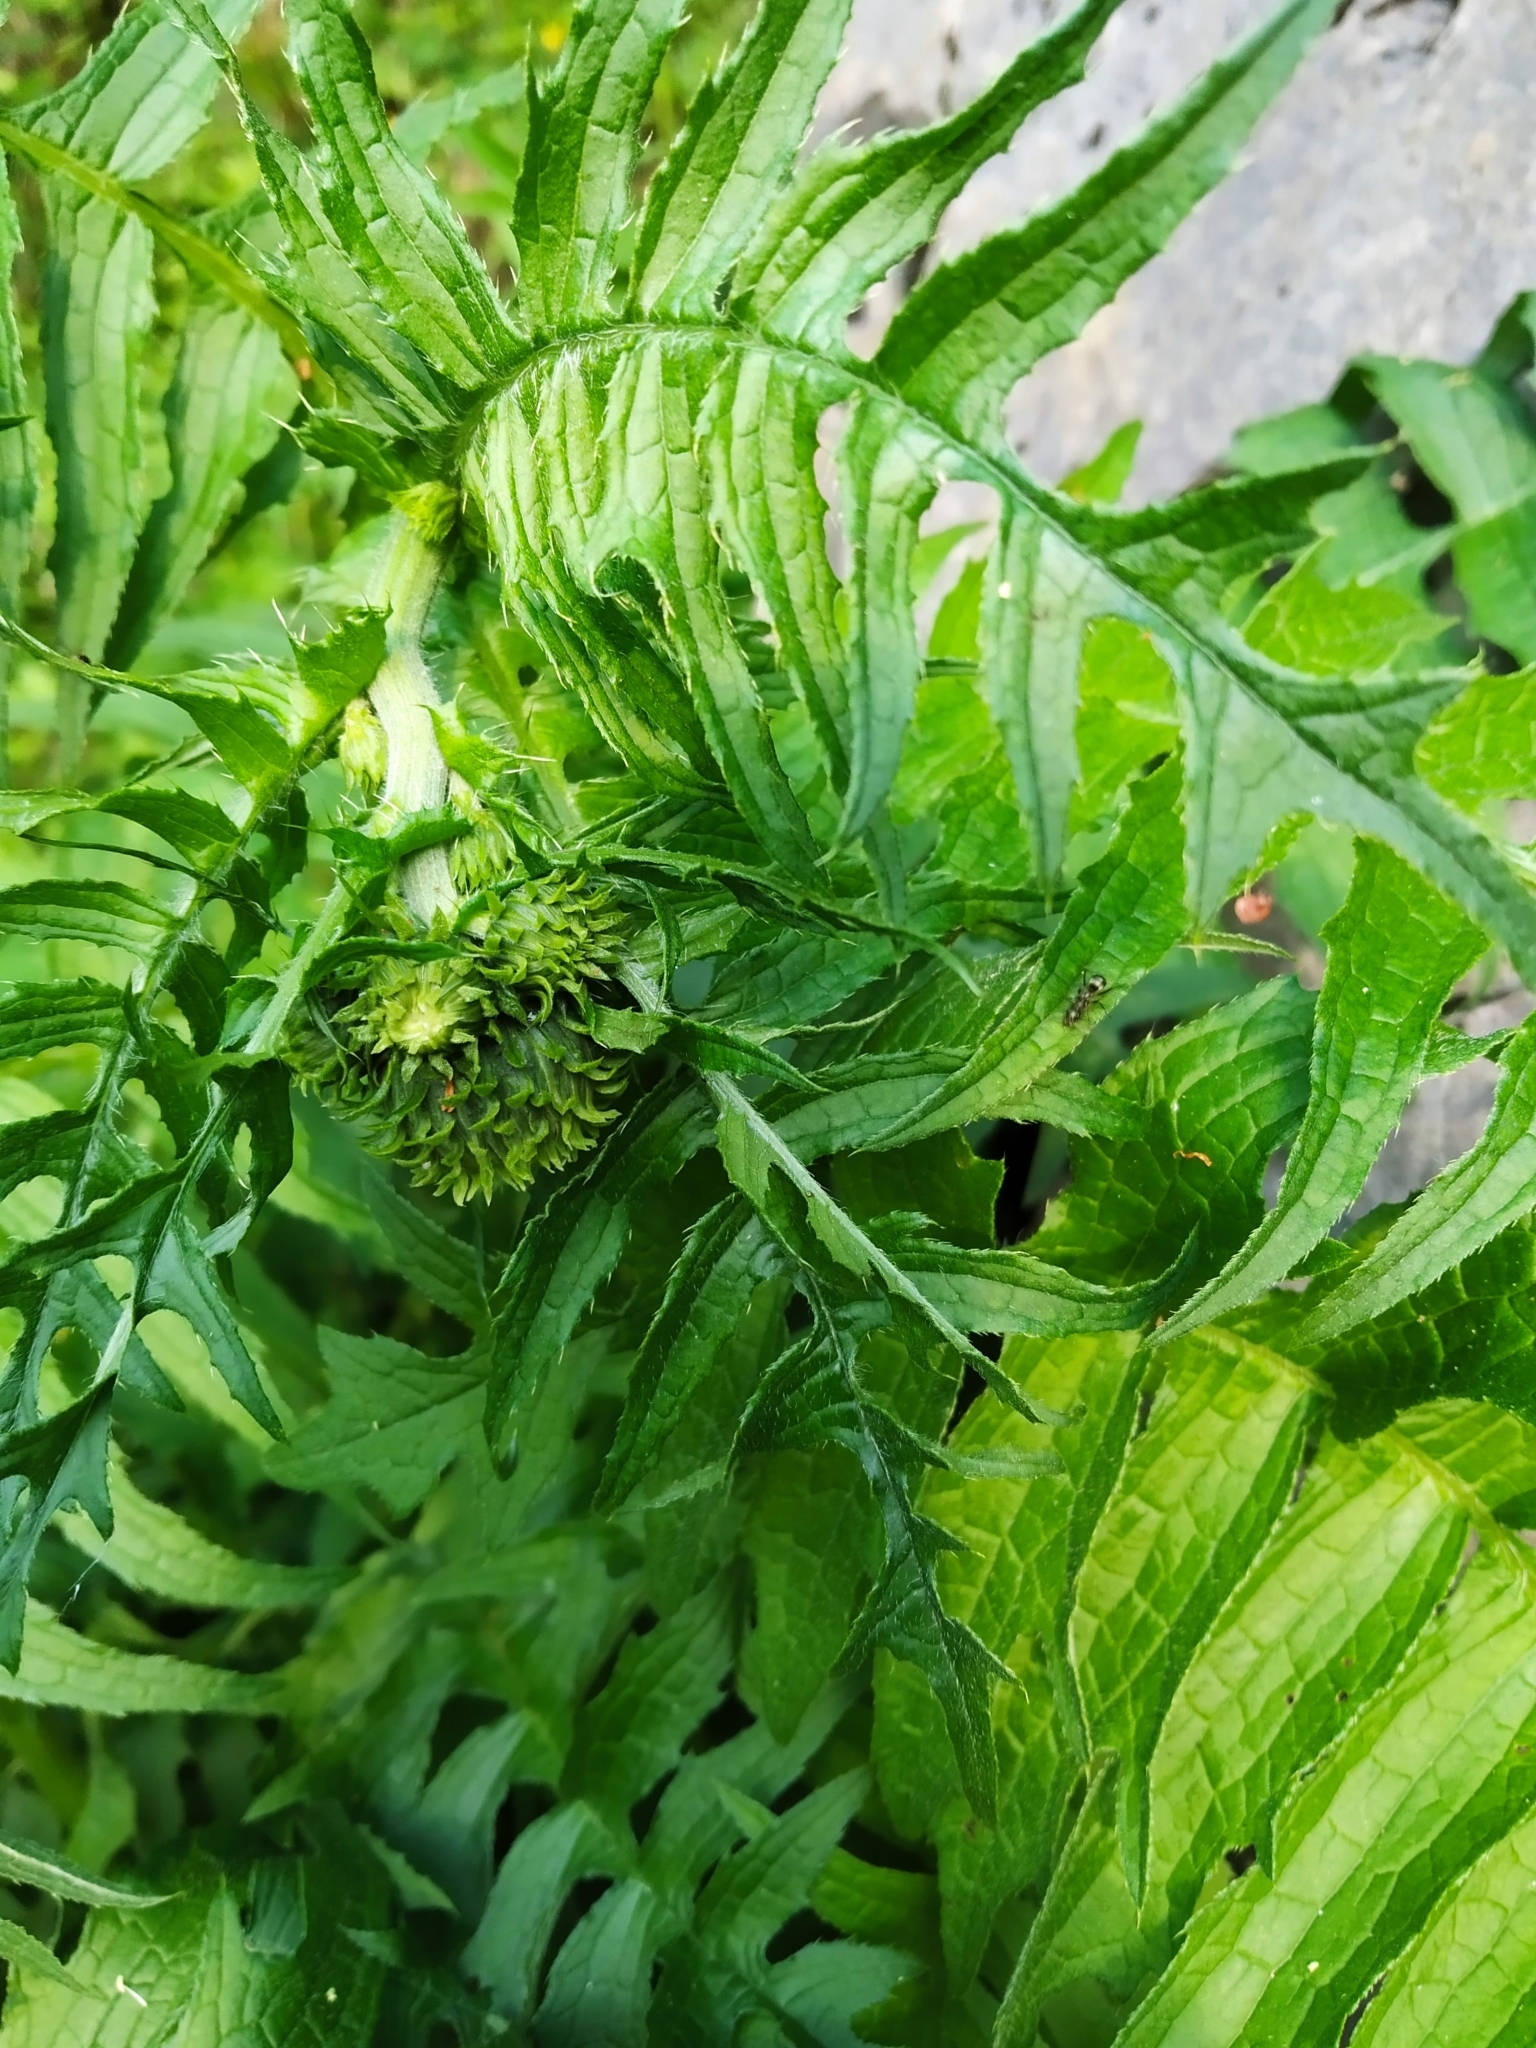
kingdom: Plantae
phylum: Tracheophyta
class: Magnoliopsida
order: Asterales
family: Asteraceae
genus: Cirsium
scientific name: Cirsium erisithales
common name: Yellow thistle
